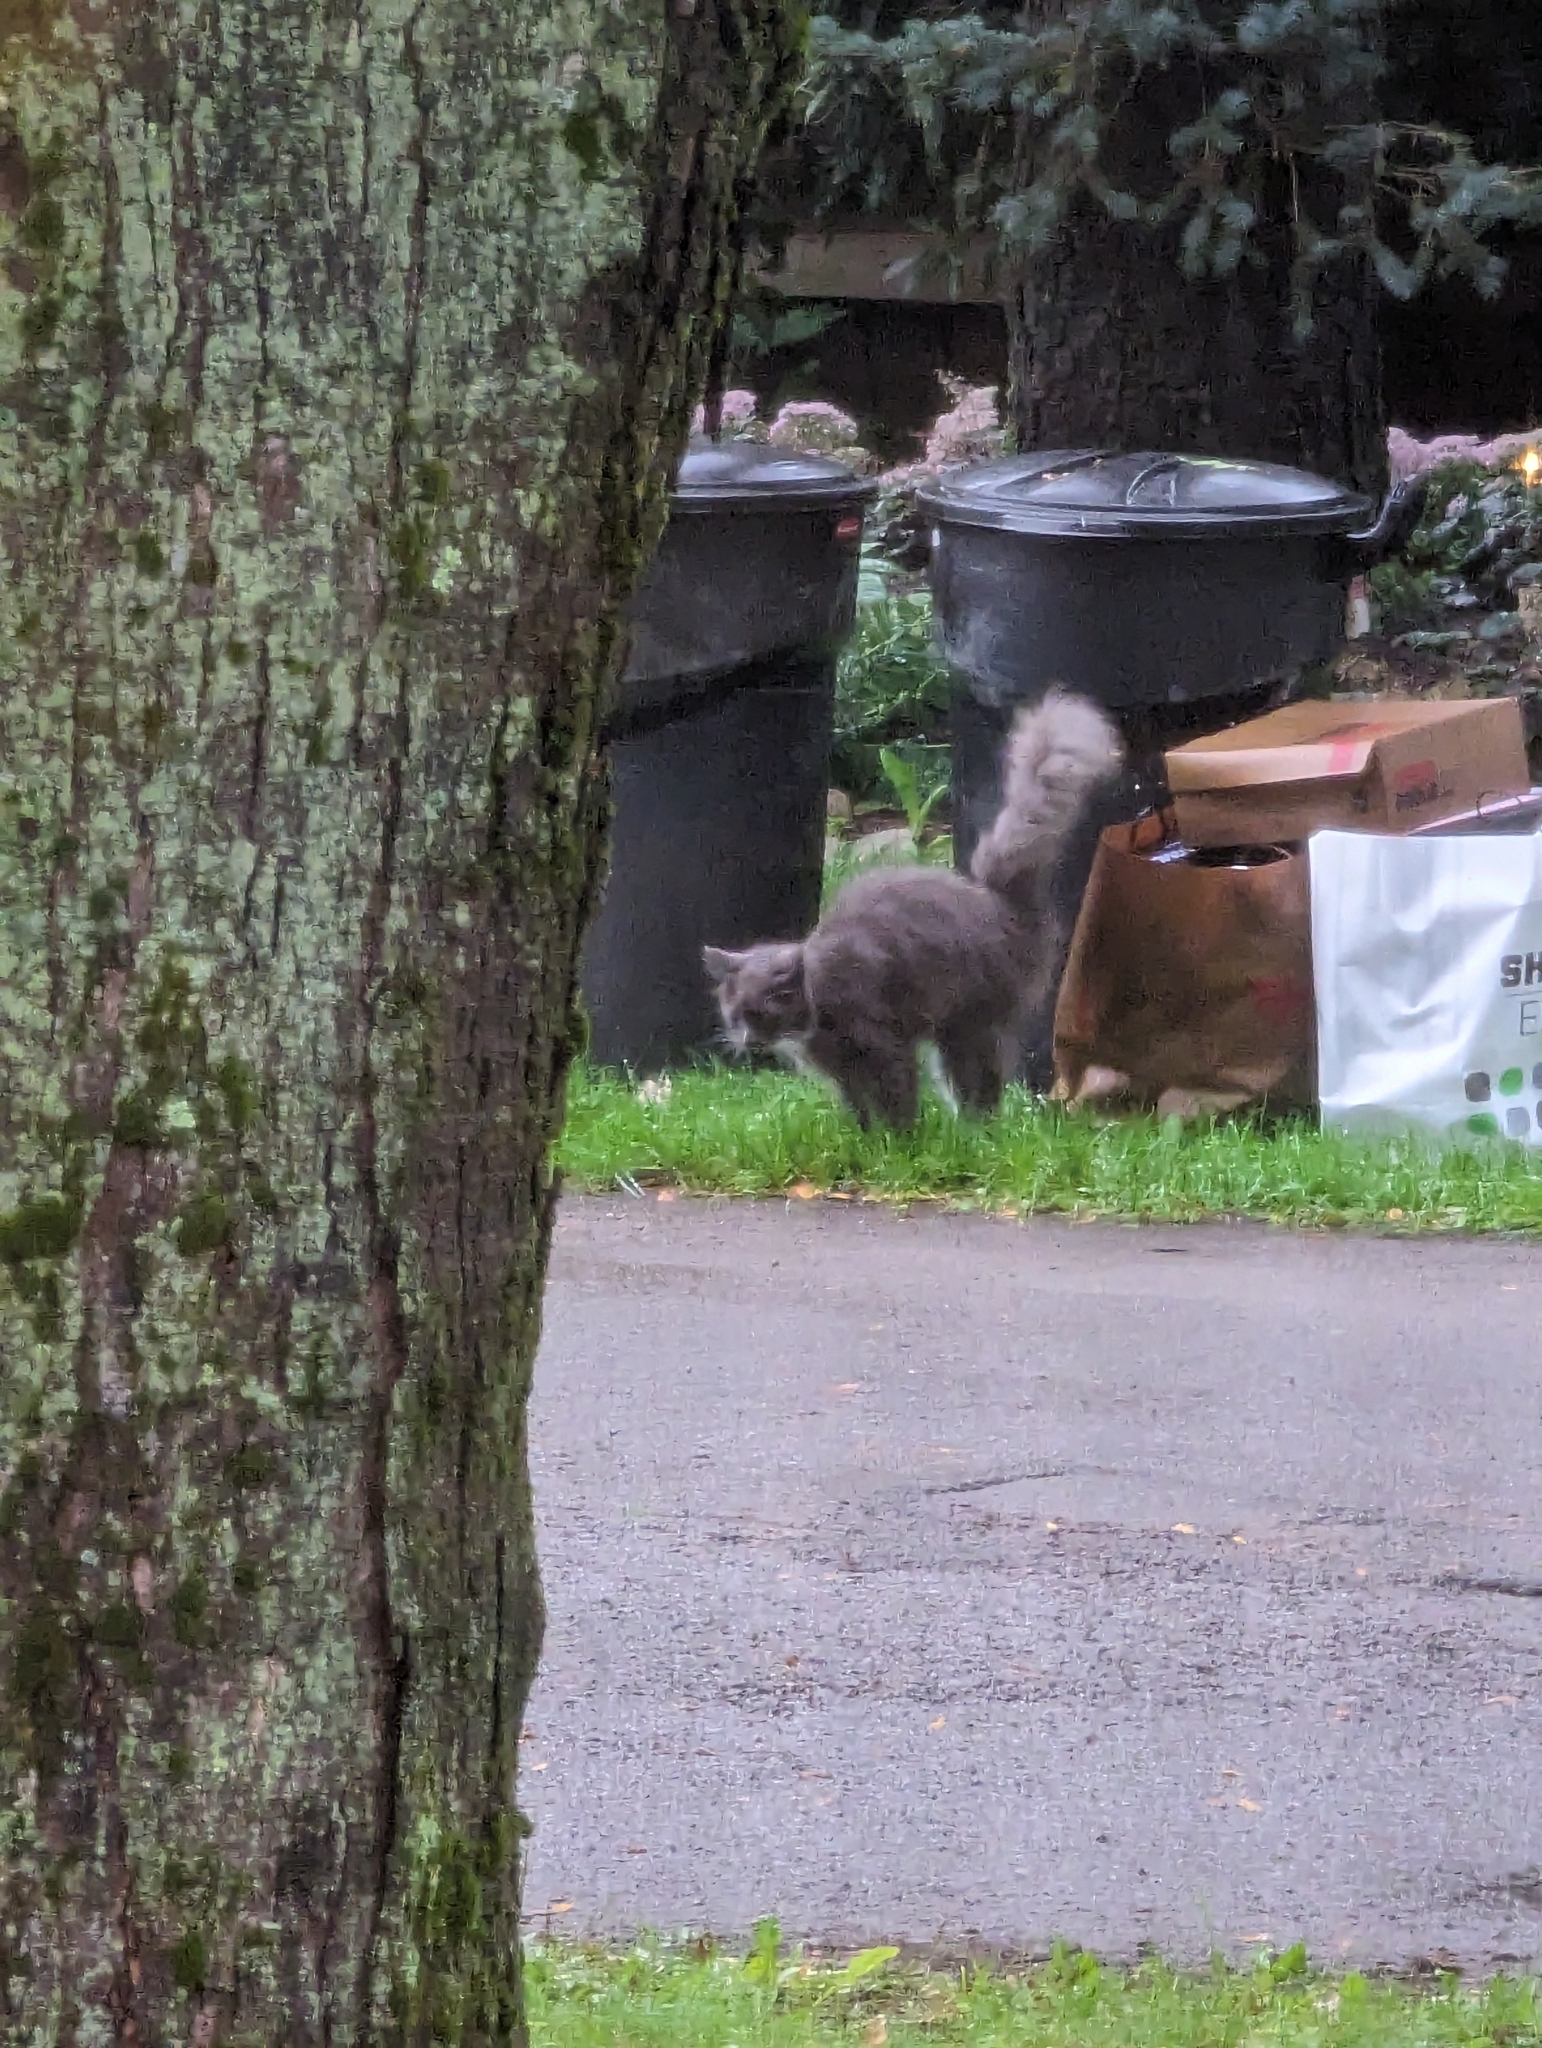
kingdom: Animalia
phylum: Chordata
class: Mammalia
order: Carnivora
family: Felidae
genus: Felis
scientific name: Felis catus
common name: Domestic cat
